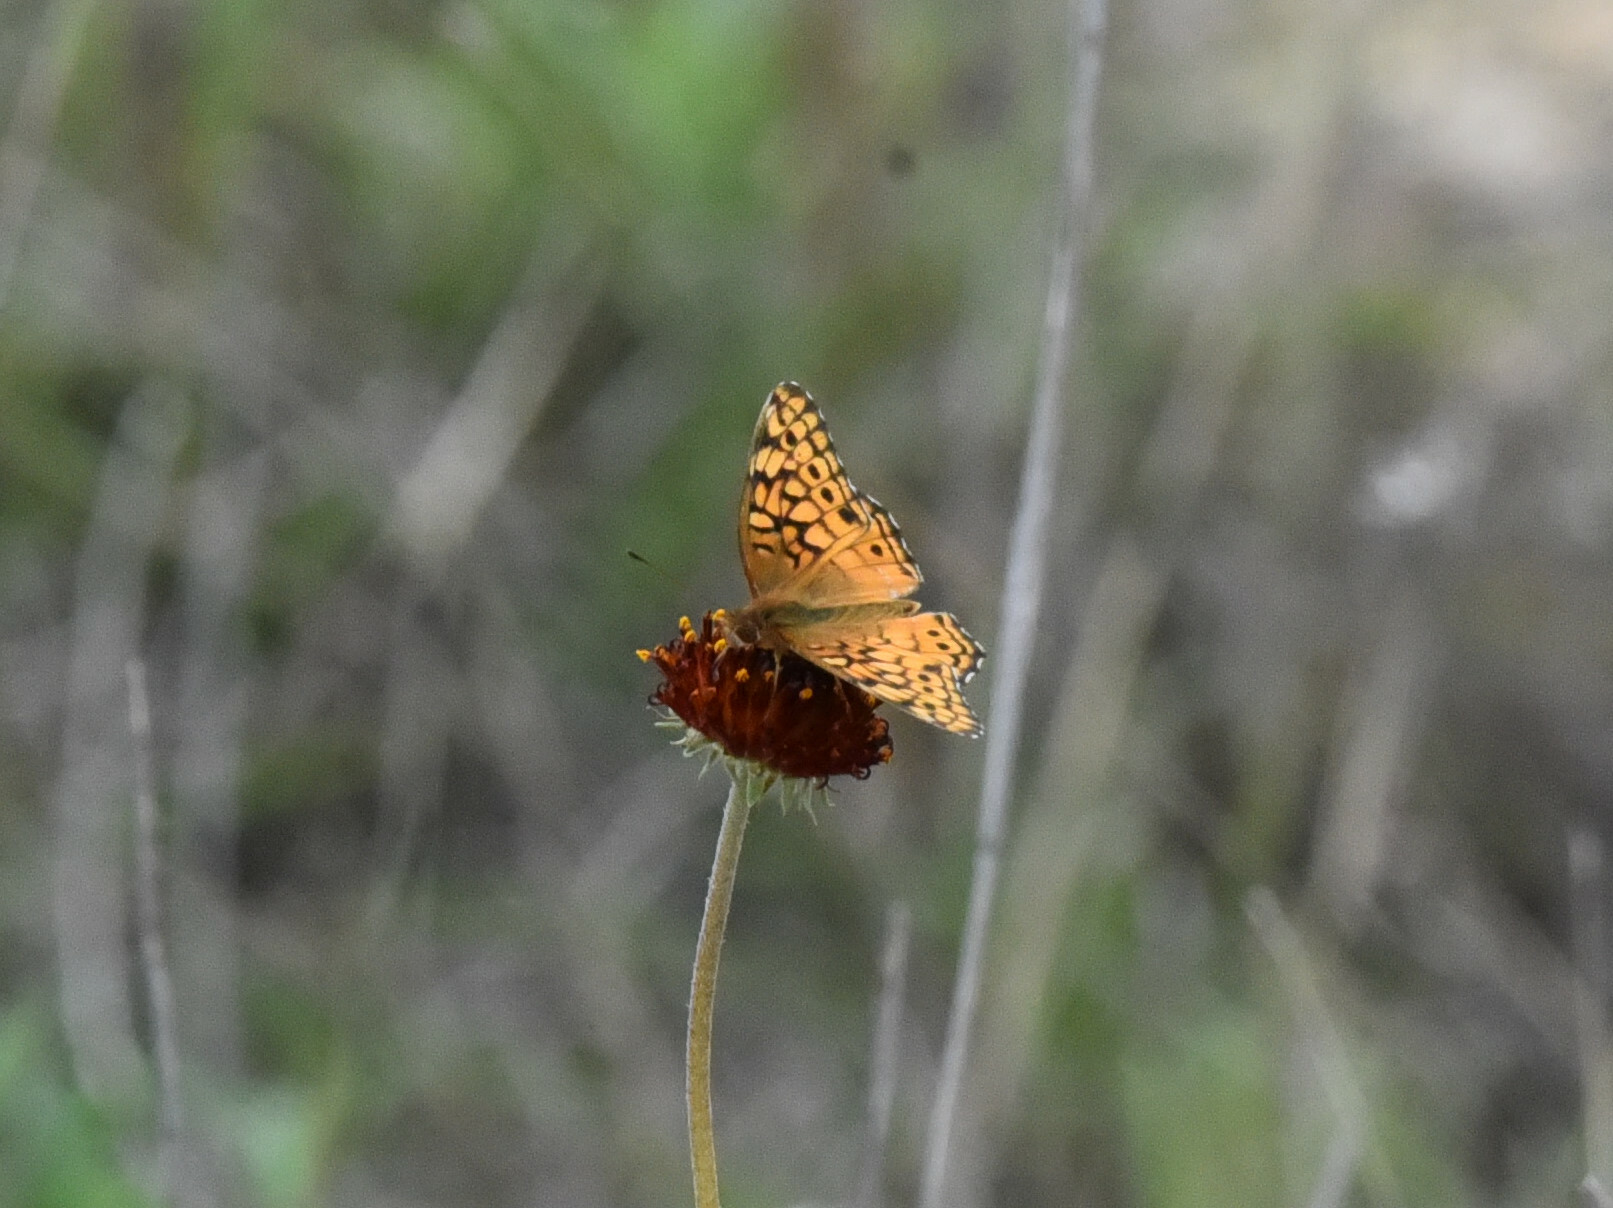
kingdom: Animalia
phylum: Arthropoda
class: Insecta
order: Lepidoptera
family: Nymphalidae
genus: Euptoieta
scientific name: Euptoieta claudia
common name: Variegated fritillary
